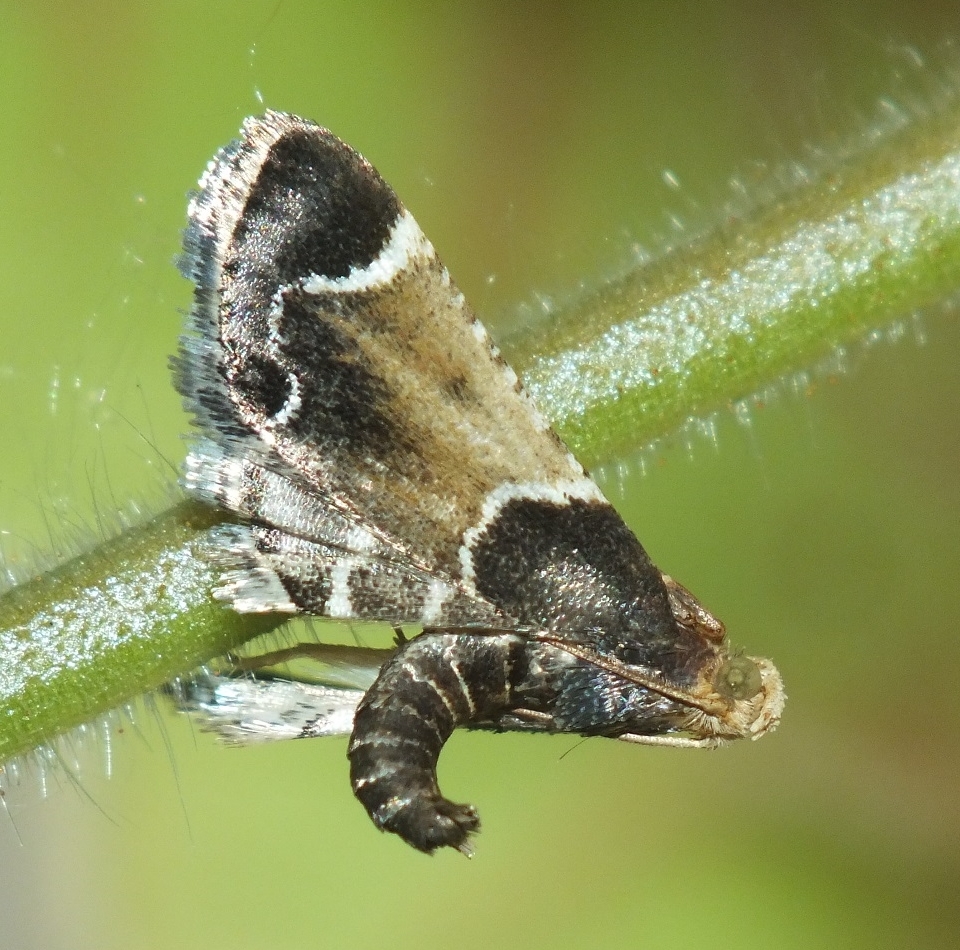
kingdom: Animalia
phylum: Arthropoda
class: Insecta
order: Lepidoptera
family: Pyralidae
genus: Pyralis
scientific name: Pyralis farinalis
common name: Meal moth
